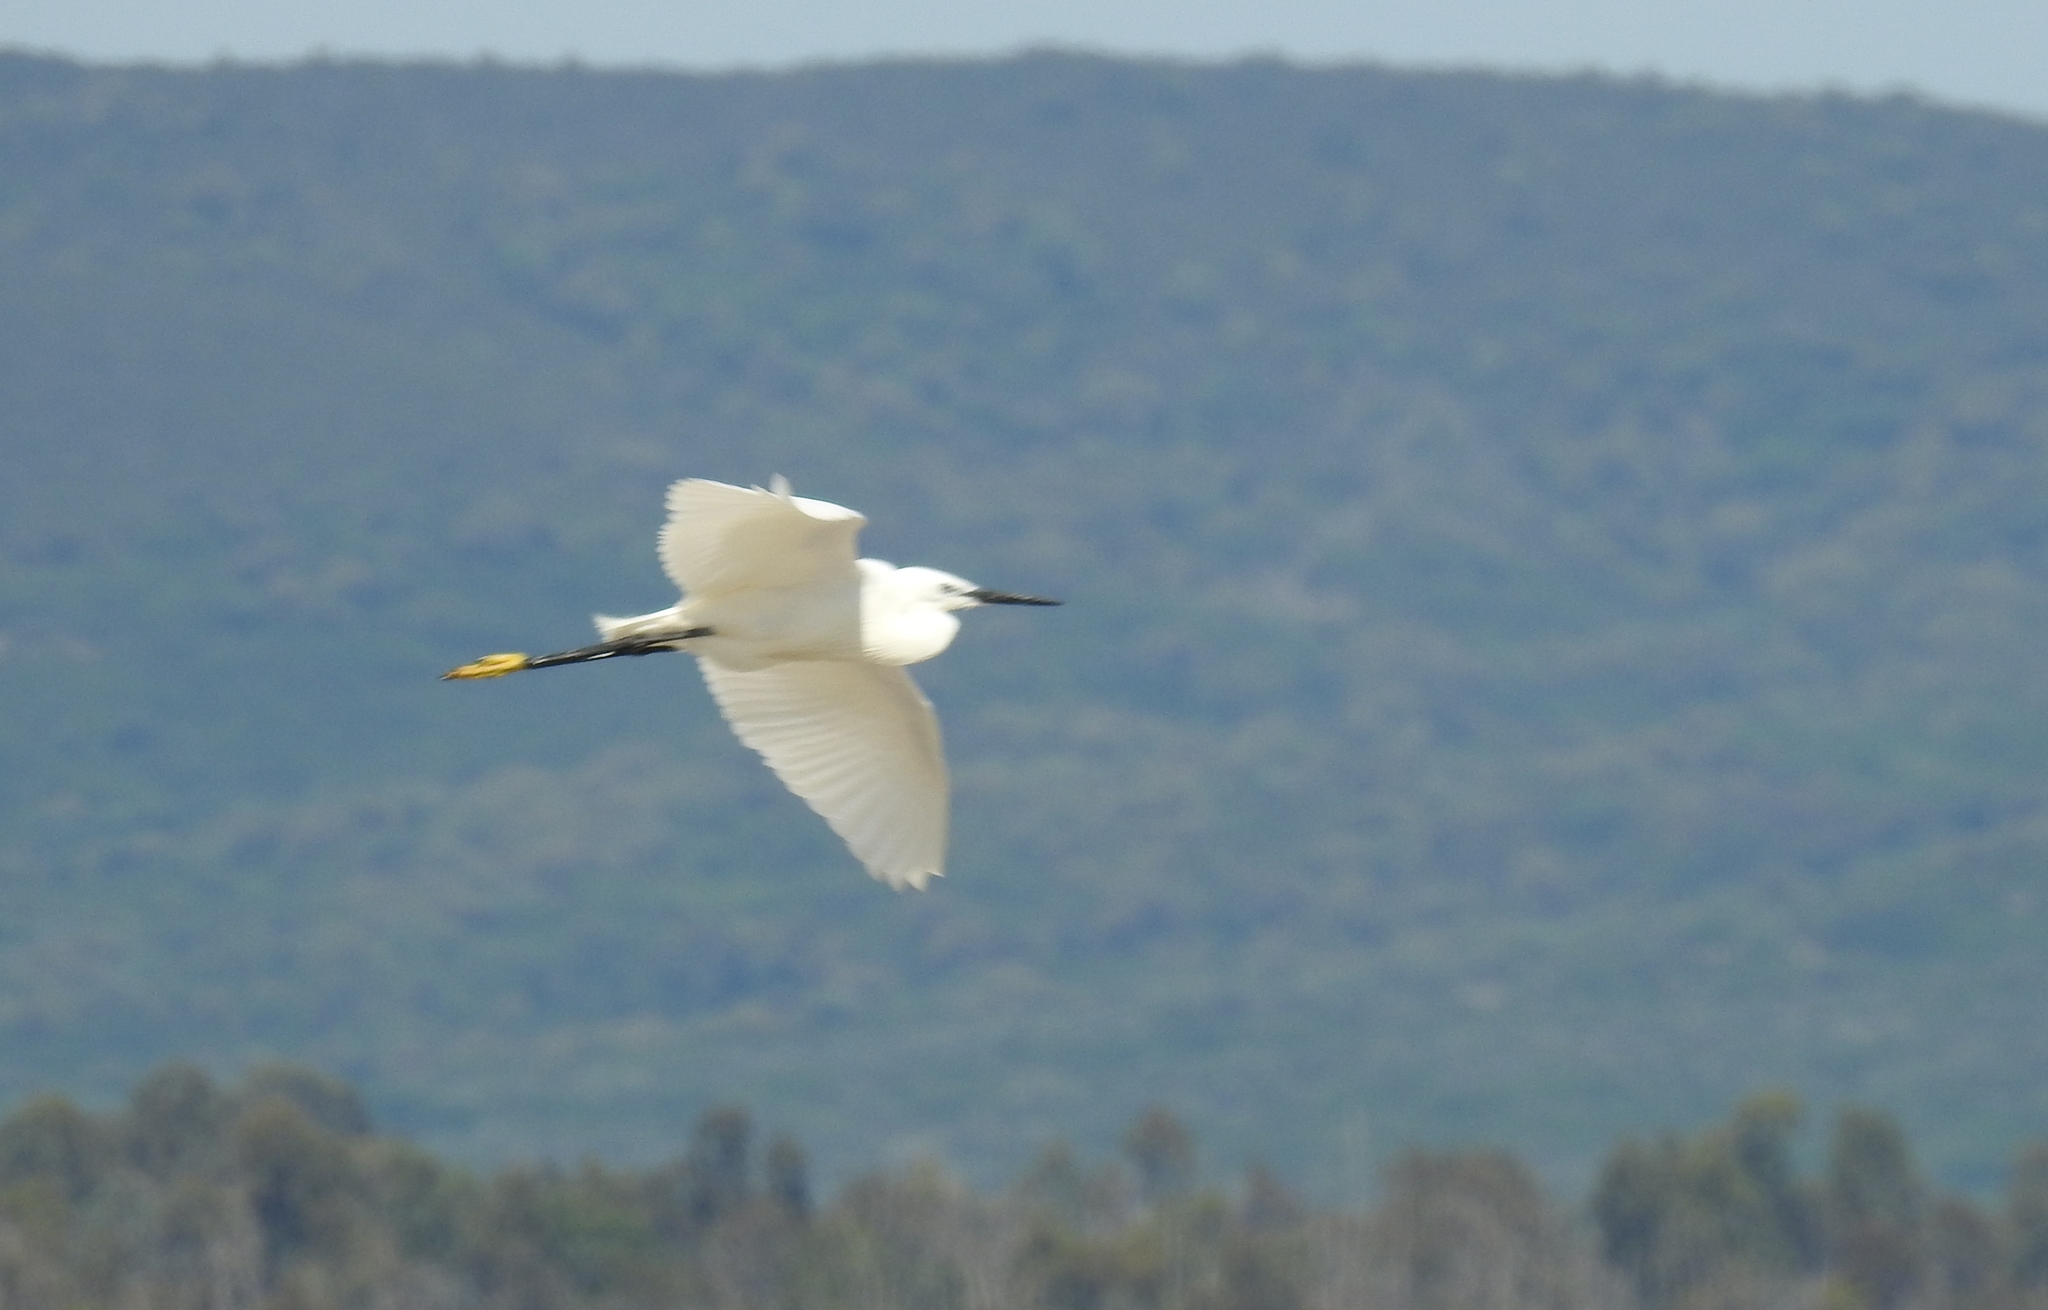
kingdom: Animalia
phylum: Chordata
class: Aves
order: Pelecaniformes
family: Ardeidae
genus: Egretta
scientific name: Egretta garzetta
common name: Little egret
